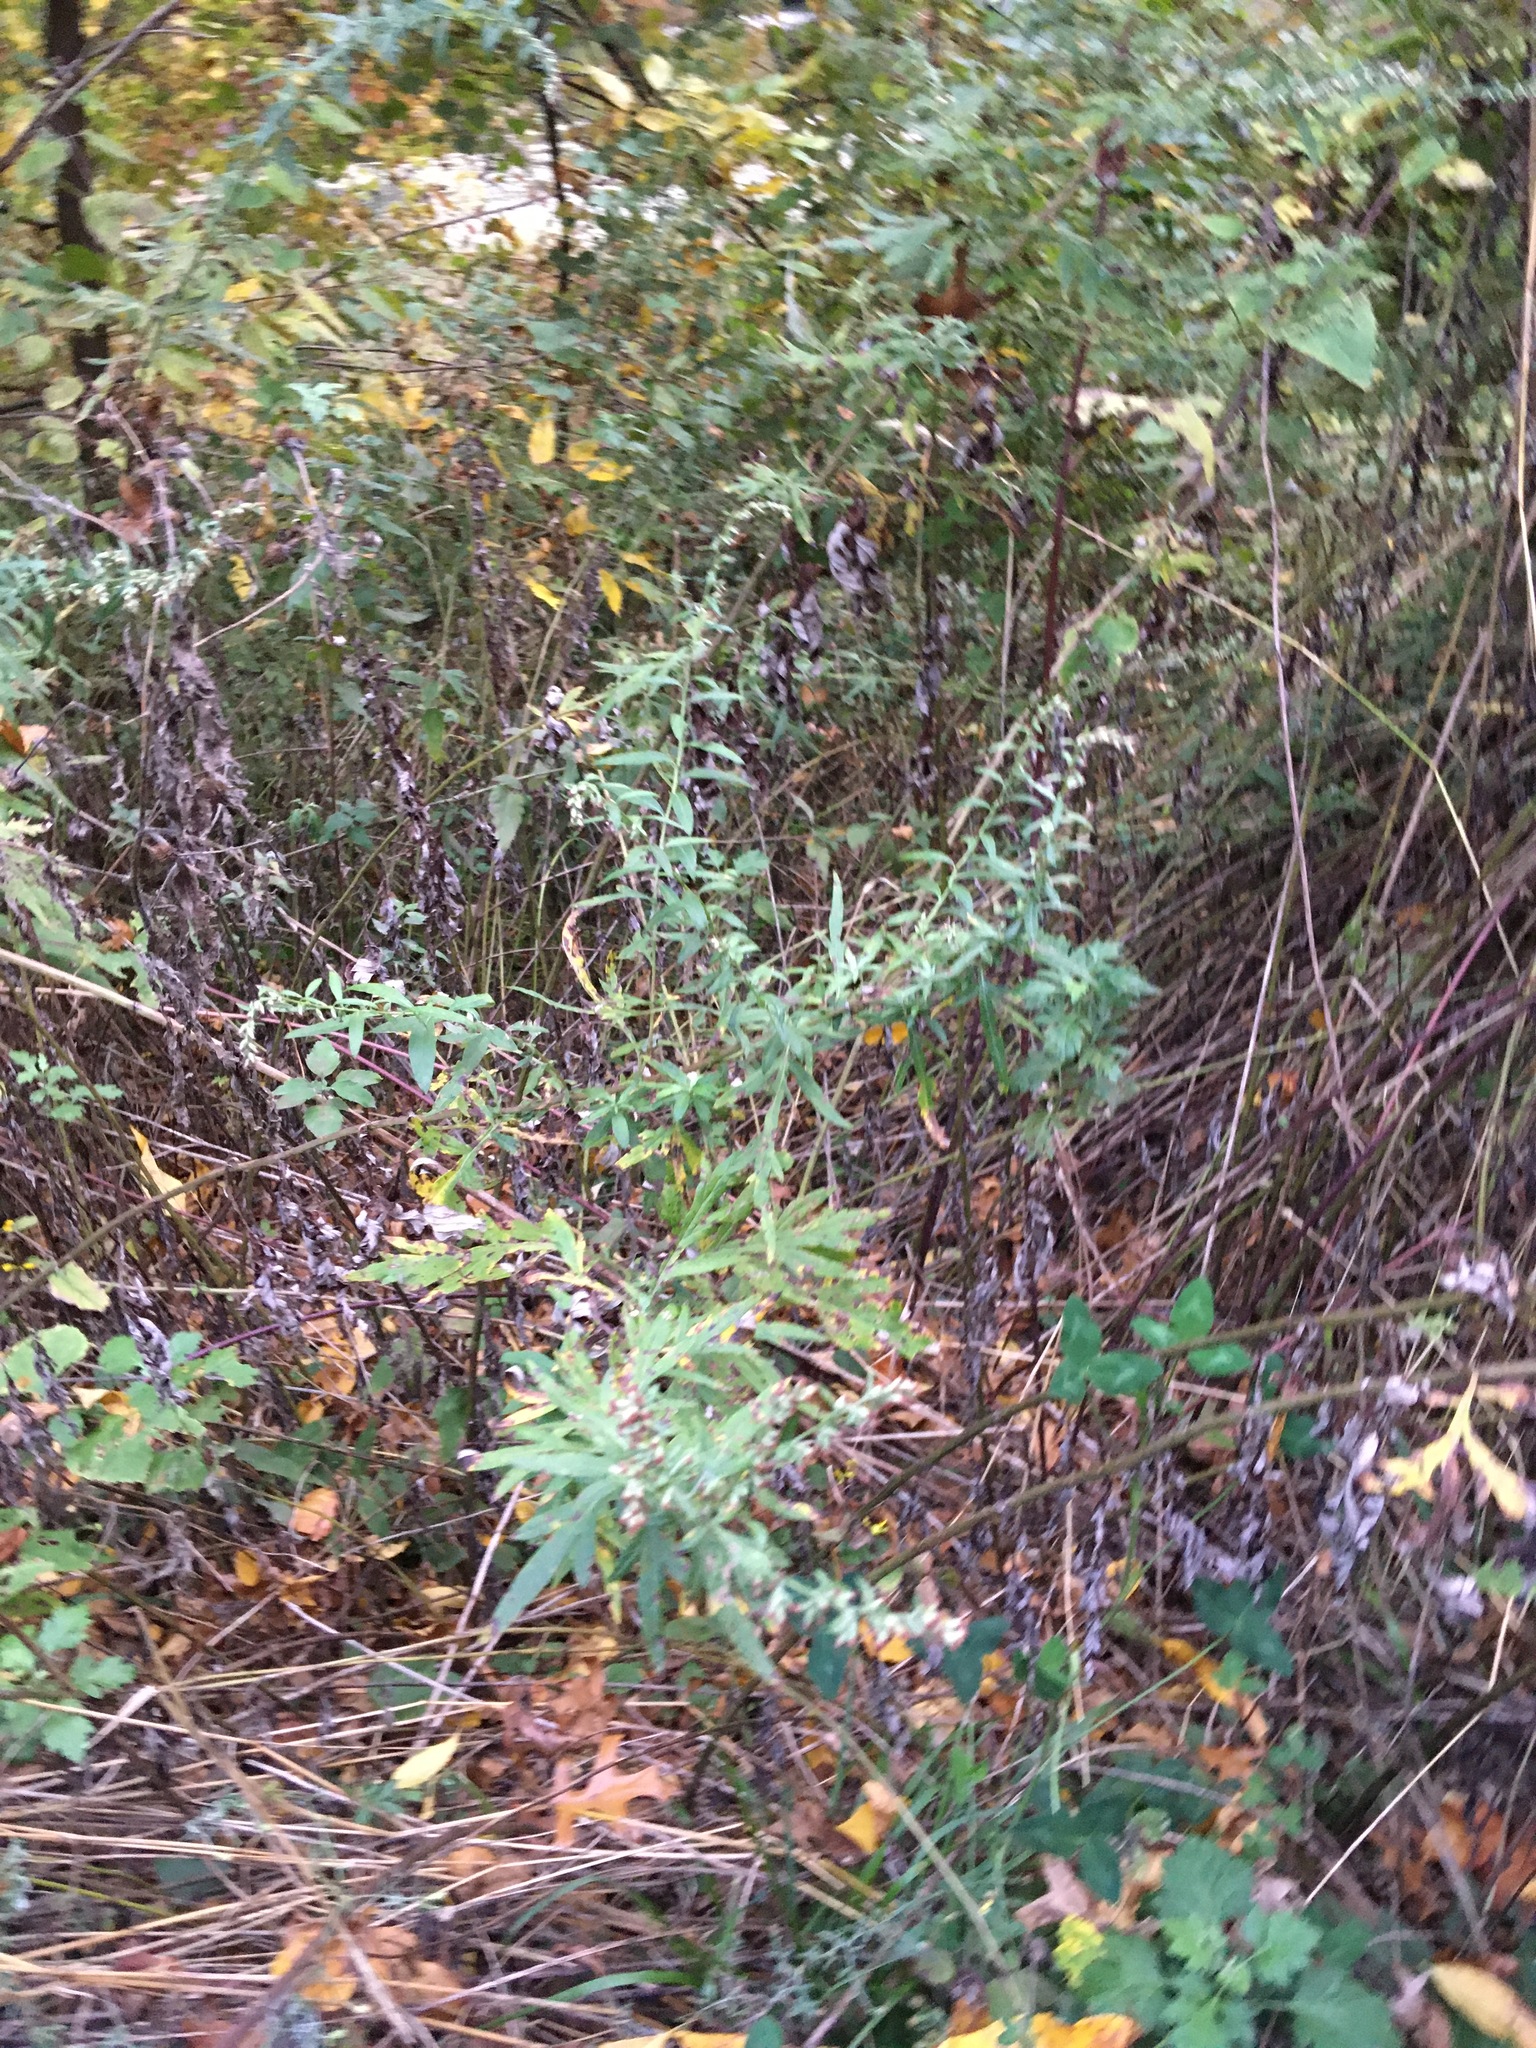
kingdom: Plantae
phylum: Tracheophyta
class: Magnoliopsida
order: Asterales
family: Asteraceae
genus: Artemisia
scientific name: Artemisia vulgaris
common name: Mugwort
